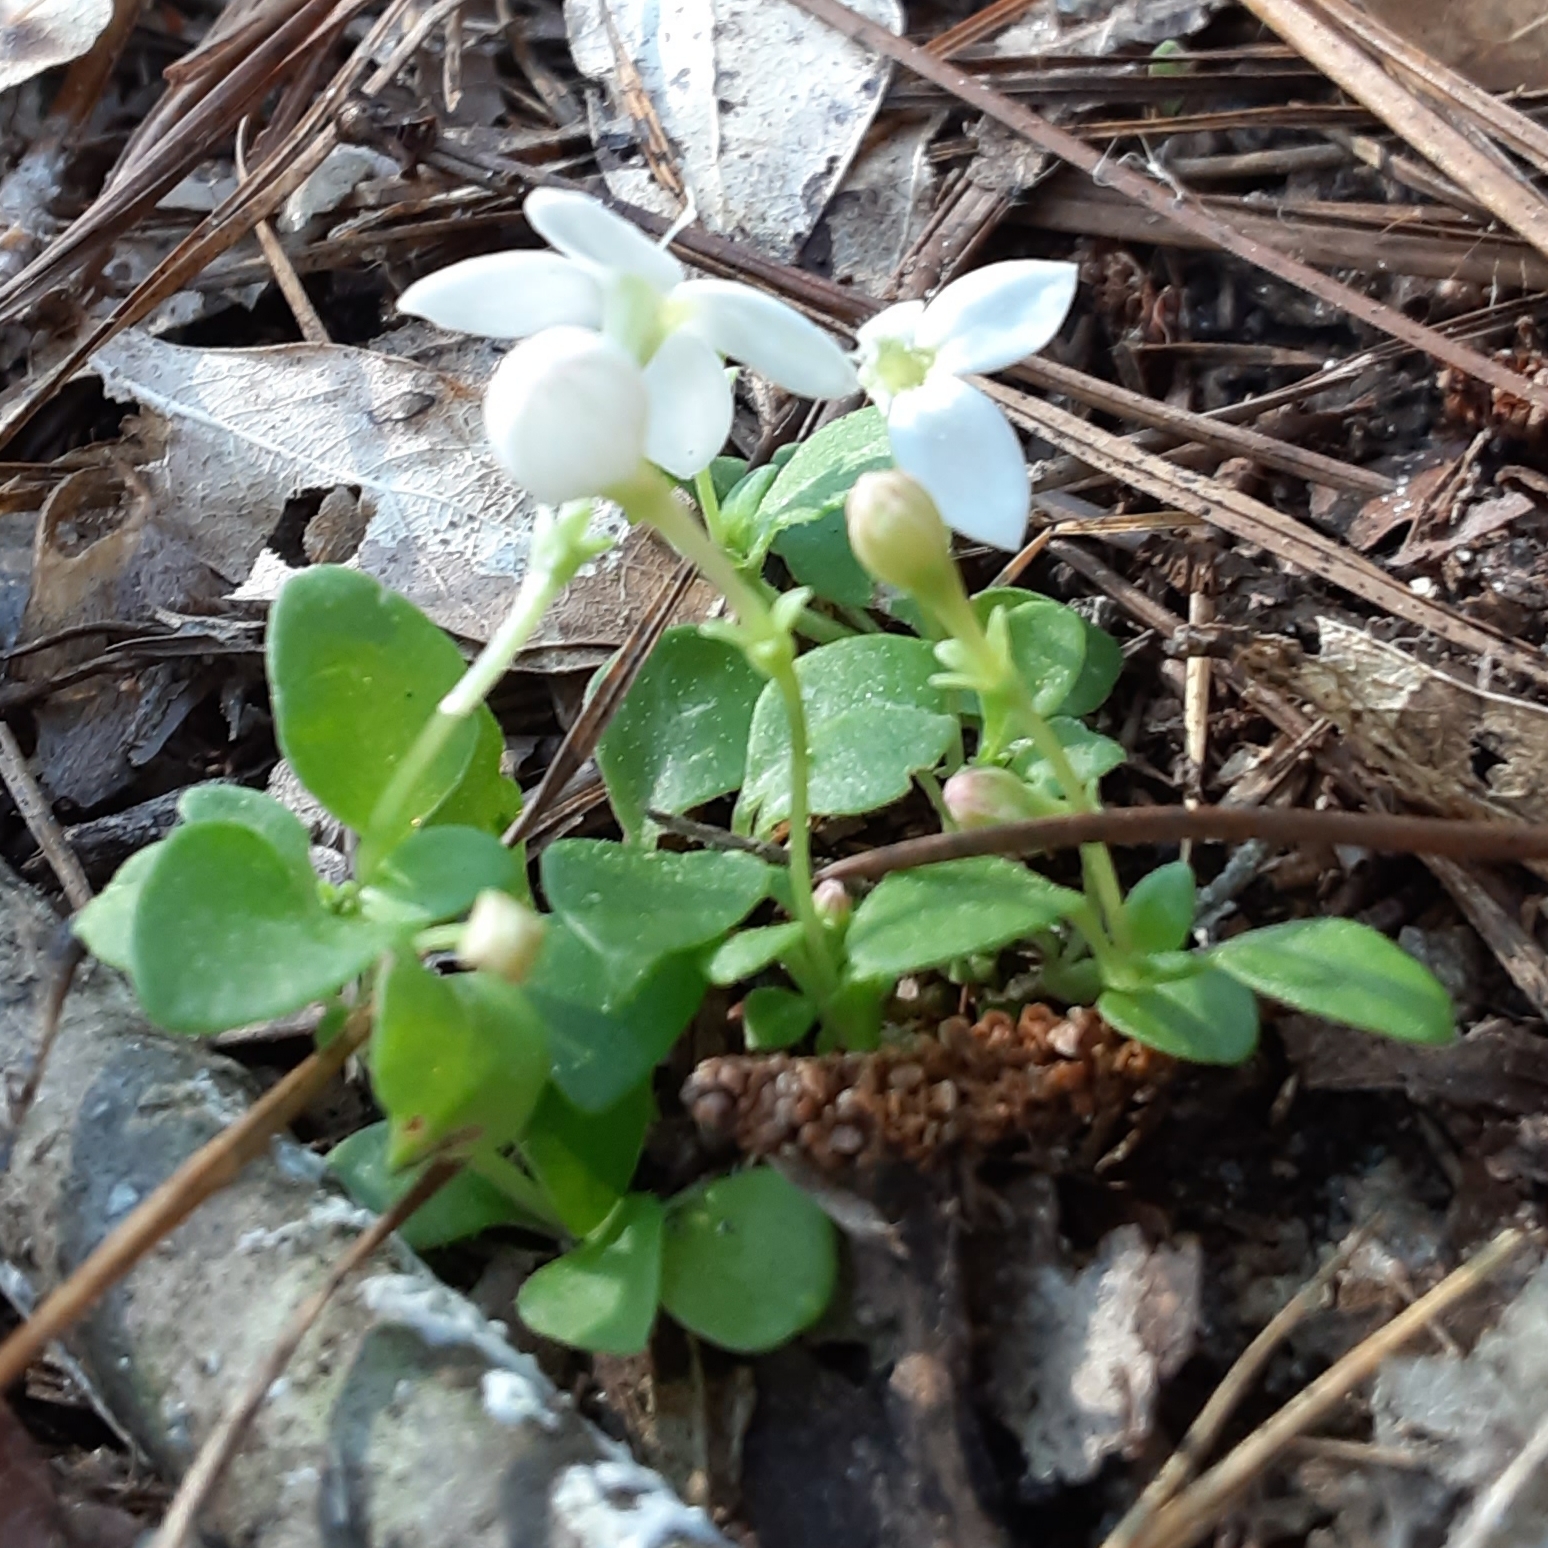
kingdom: Plantae
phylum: Tracheophyta
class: Magnoliopsida
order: Gentianales
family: Rubiaceae
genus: Houstonia
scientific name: Houstonia procumbens
